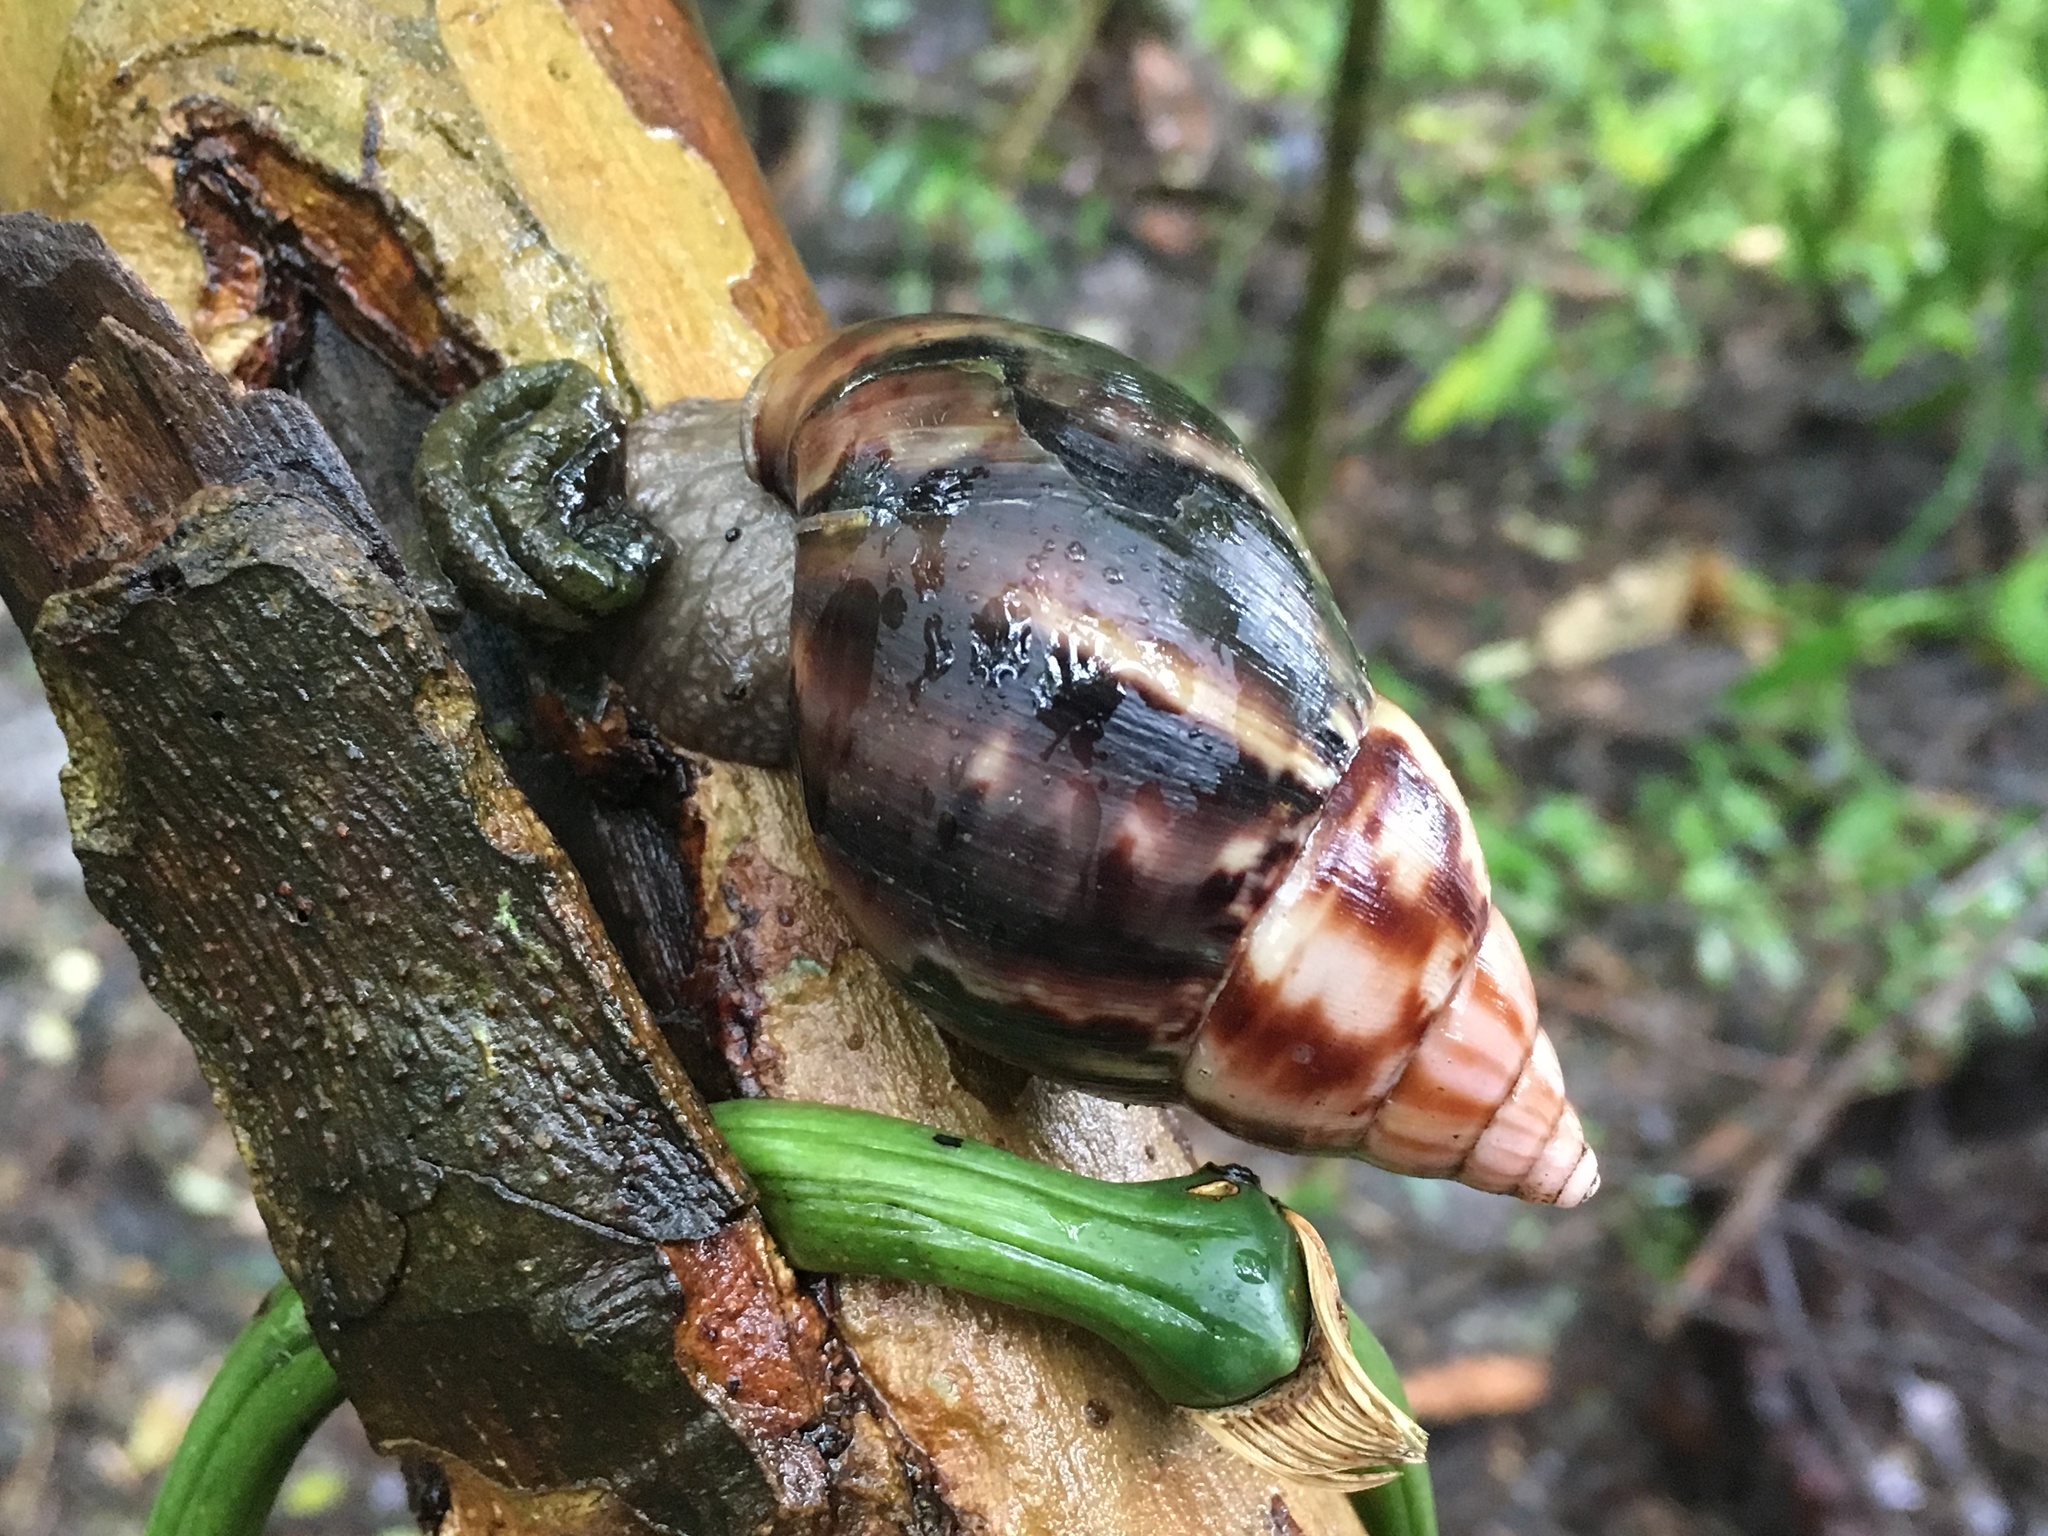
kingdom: Animalia
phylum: Mollusca
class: Gastropoda
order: Stylommatophora
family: Achatinidae
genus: Lissachatina
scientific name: Lissachatina fulica
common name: Giant african snail
